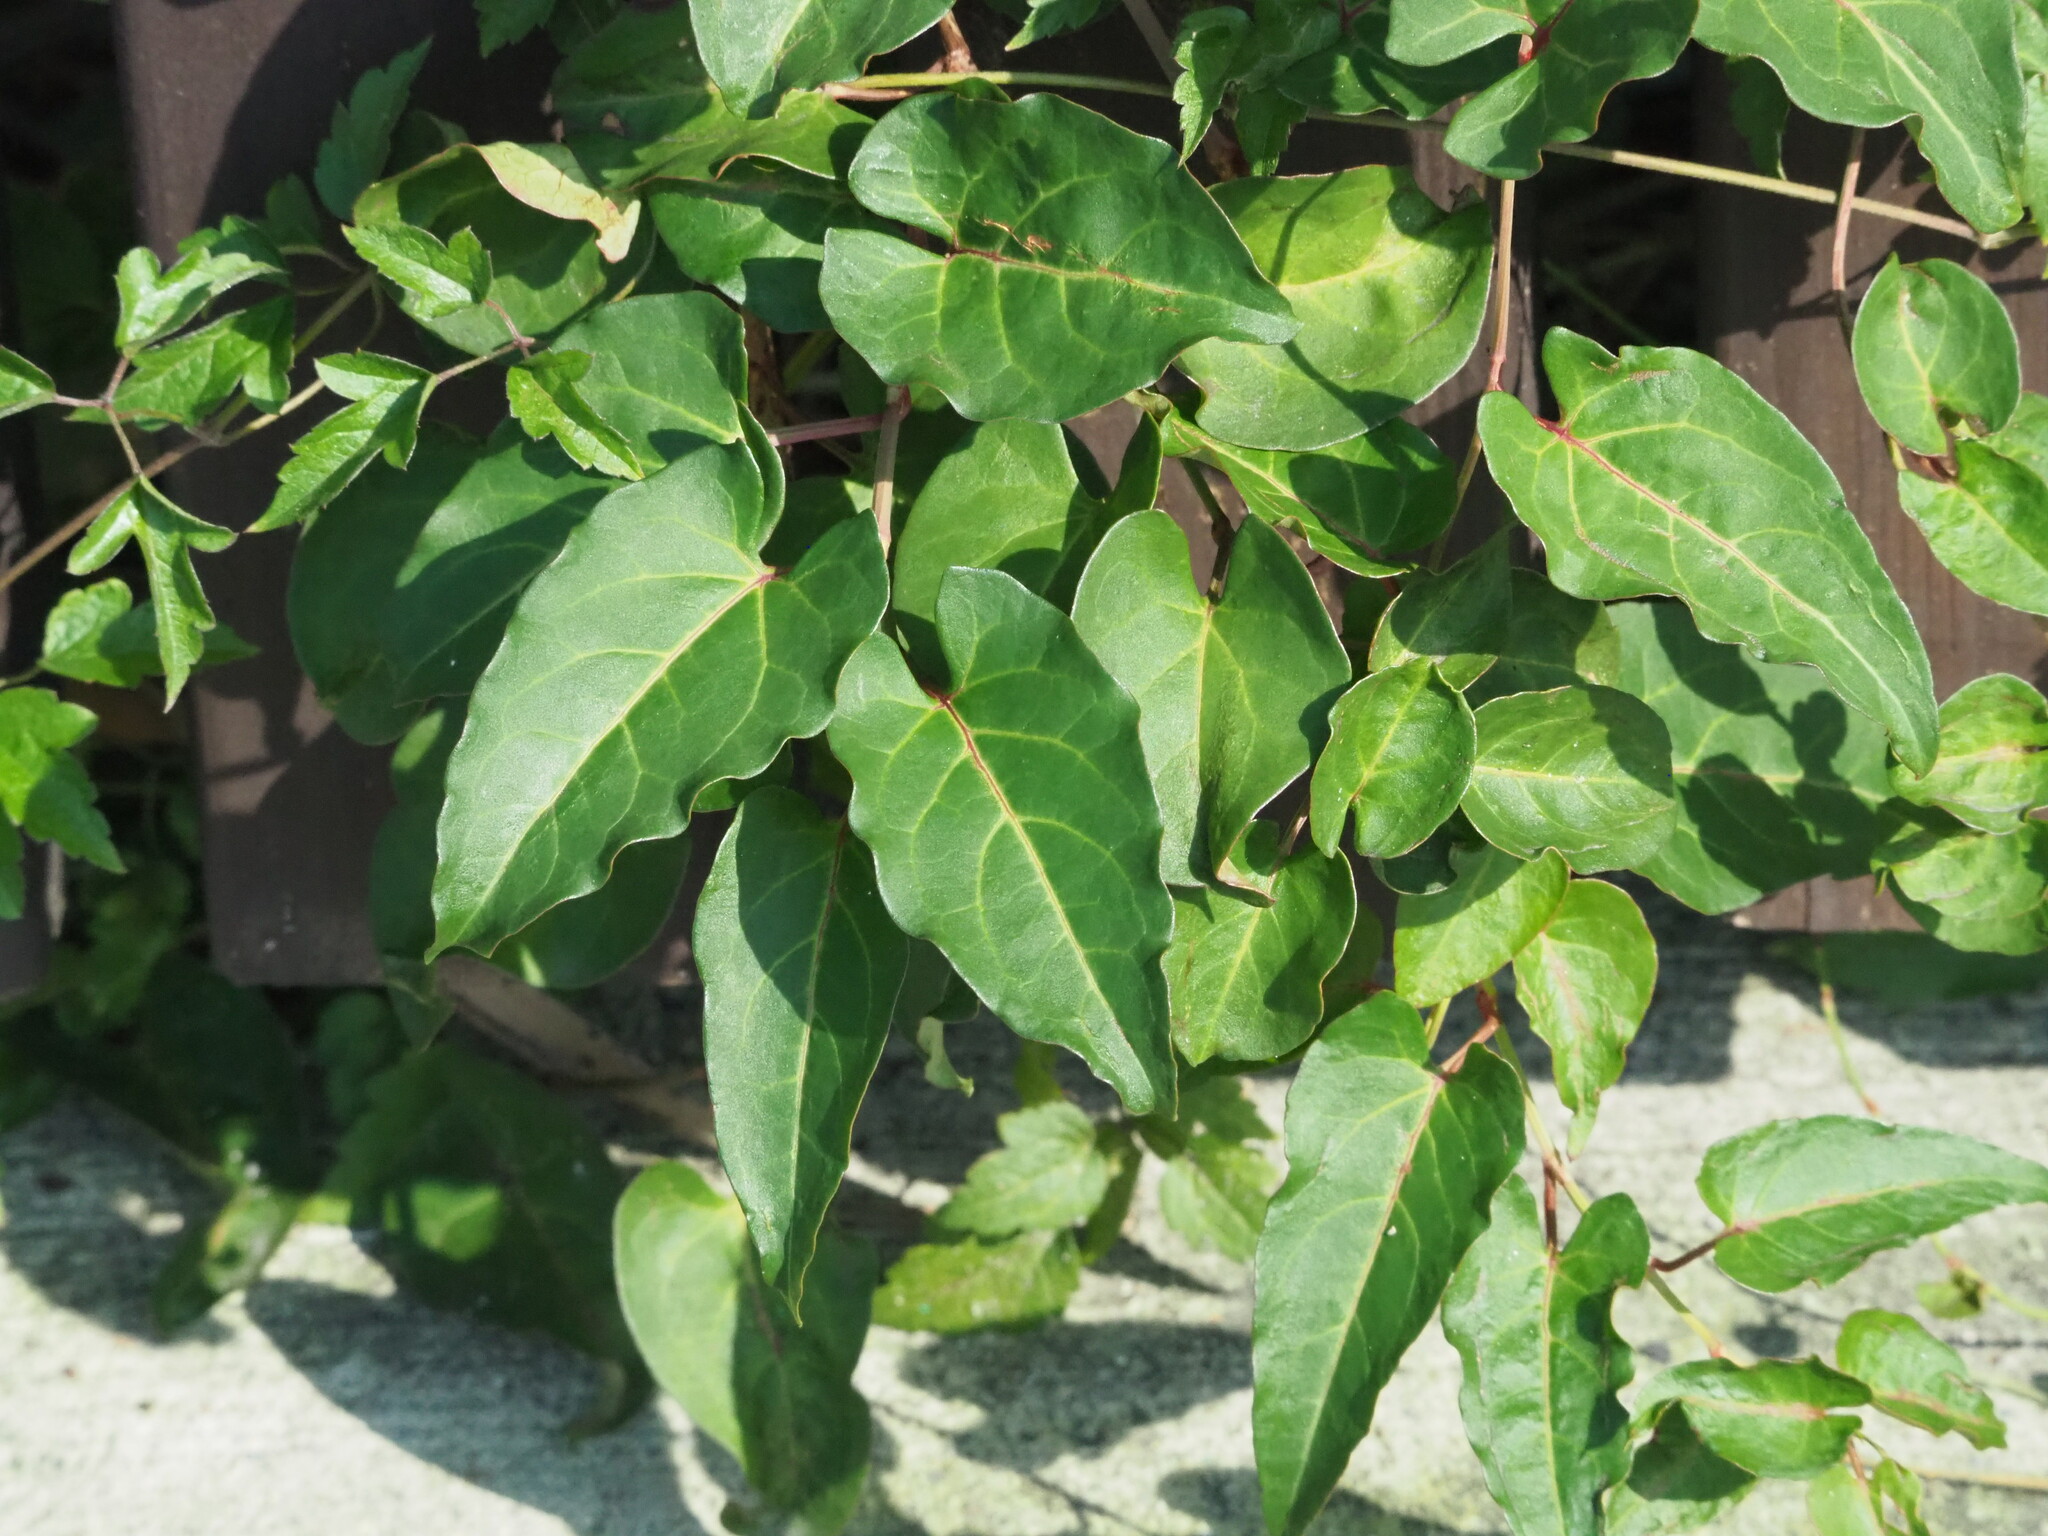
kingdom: Plantae
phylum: Tracheophyta
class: Magnoliopsida
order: Caryophyllales
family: Polygonaceae
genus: Reynoutria
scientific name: Reynoutria multiflora
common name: Chinese fleeceflower
